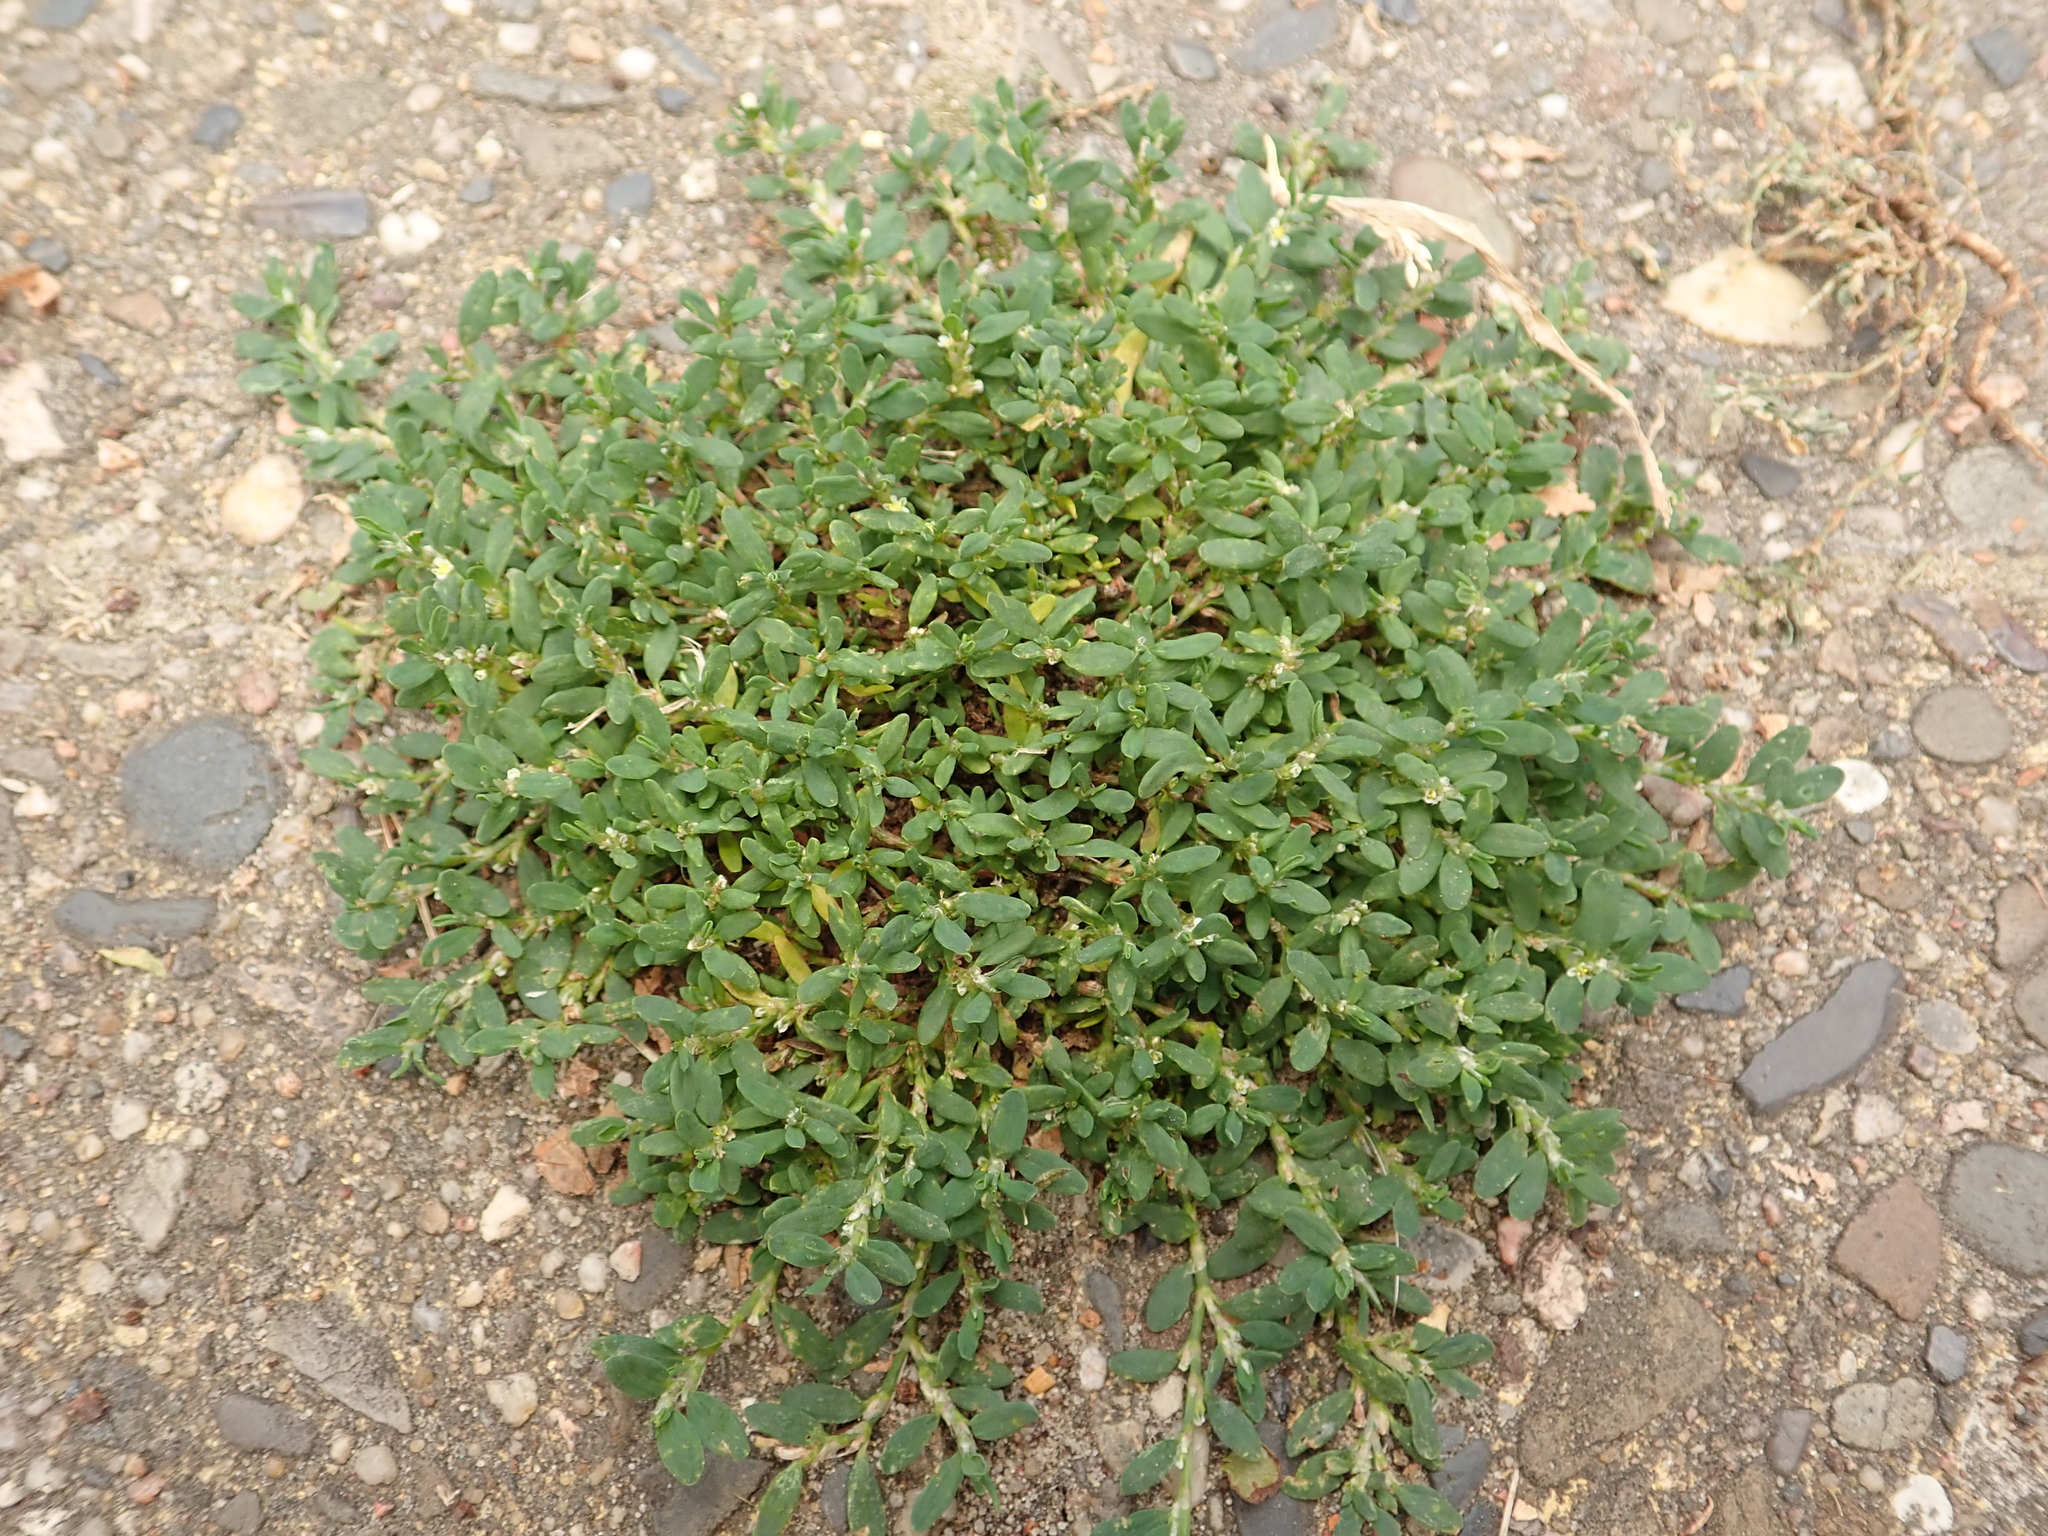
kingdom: Plantae
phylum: Tracheophyta
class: Magnoliopsida
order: Caryophyllales
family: Polygonaceae
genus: Polygonum
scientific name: Polygonum aviculare
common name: Prostrate knotweed
